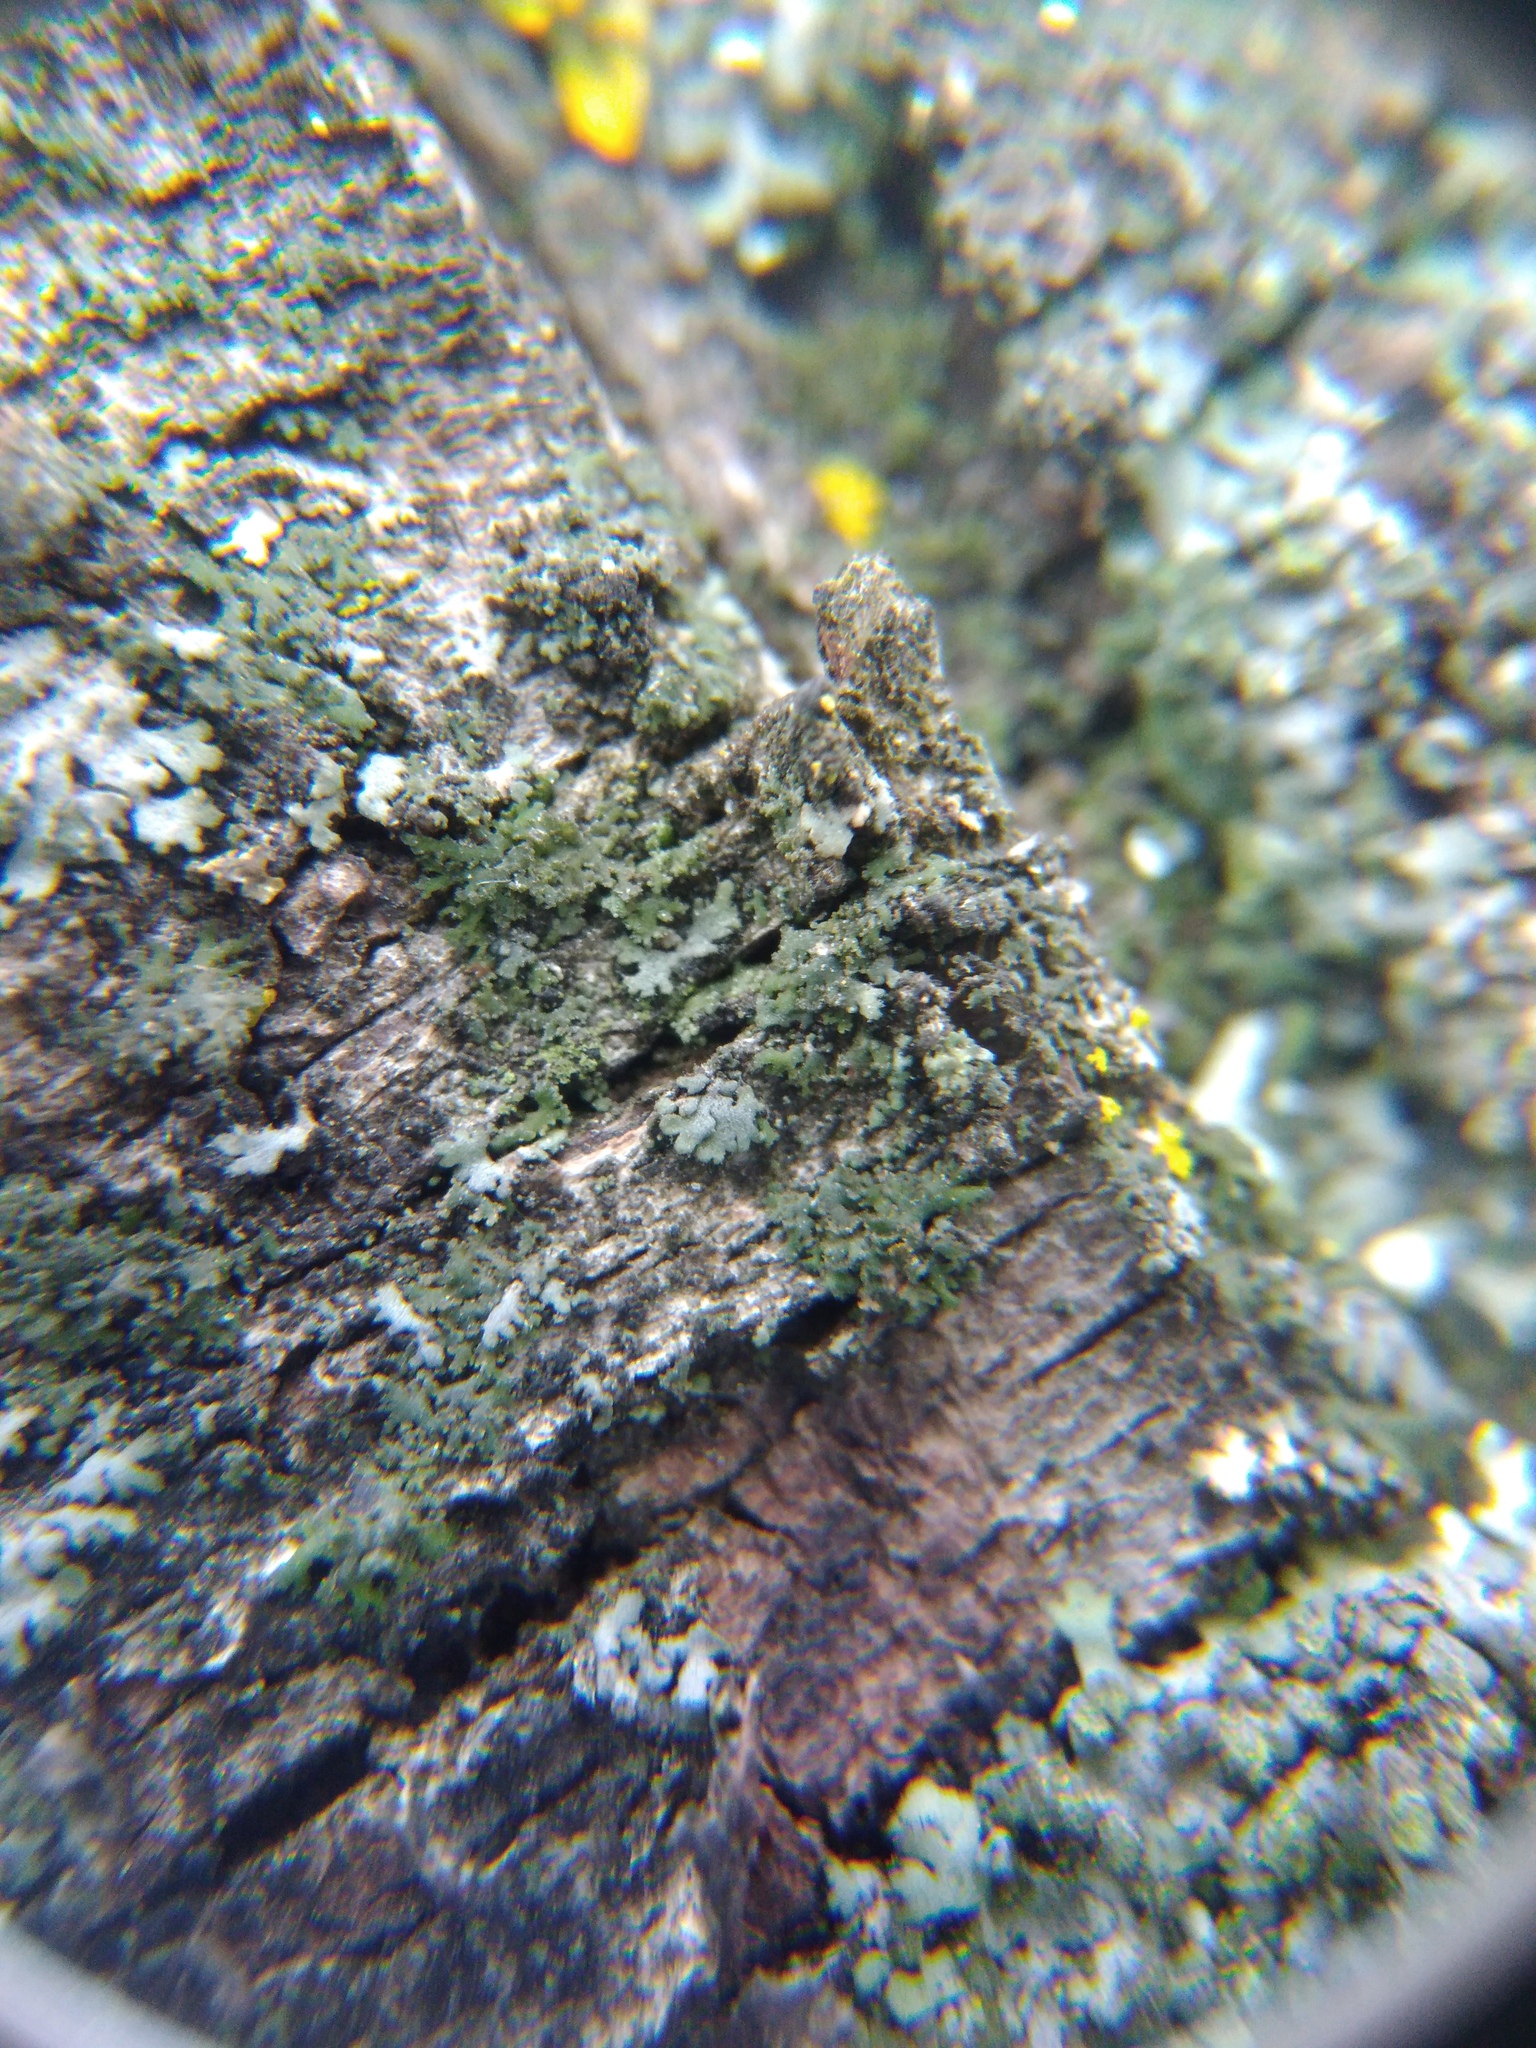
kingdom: Fungi
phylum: Ascomycota
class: Lecanoromycetes
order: Caliciales
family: Physciaceae
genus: Physciella
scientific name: Physciella nigricans
